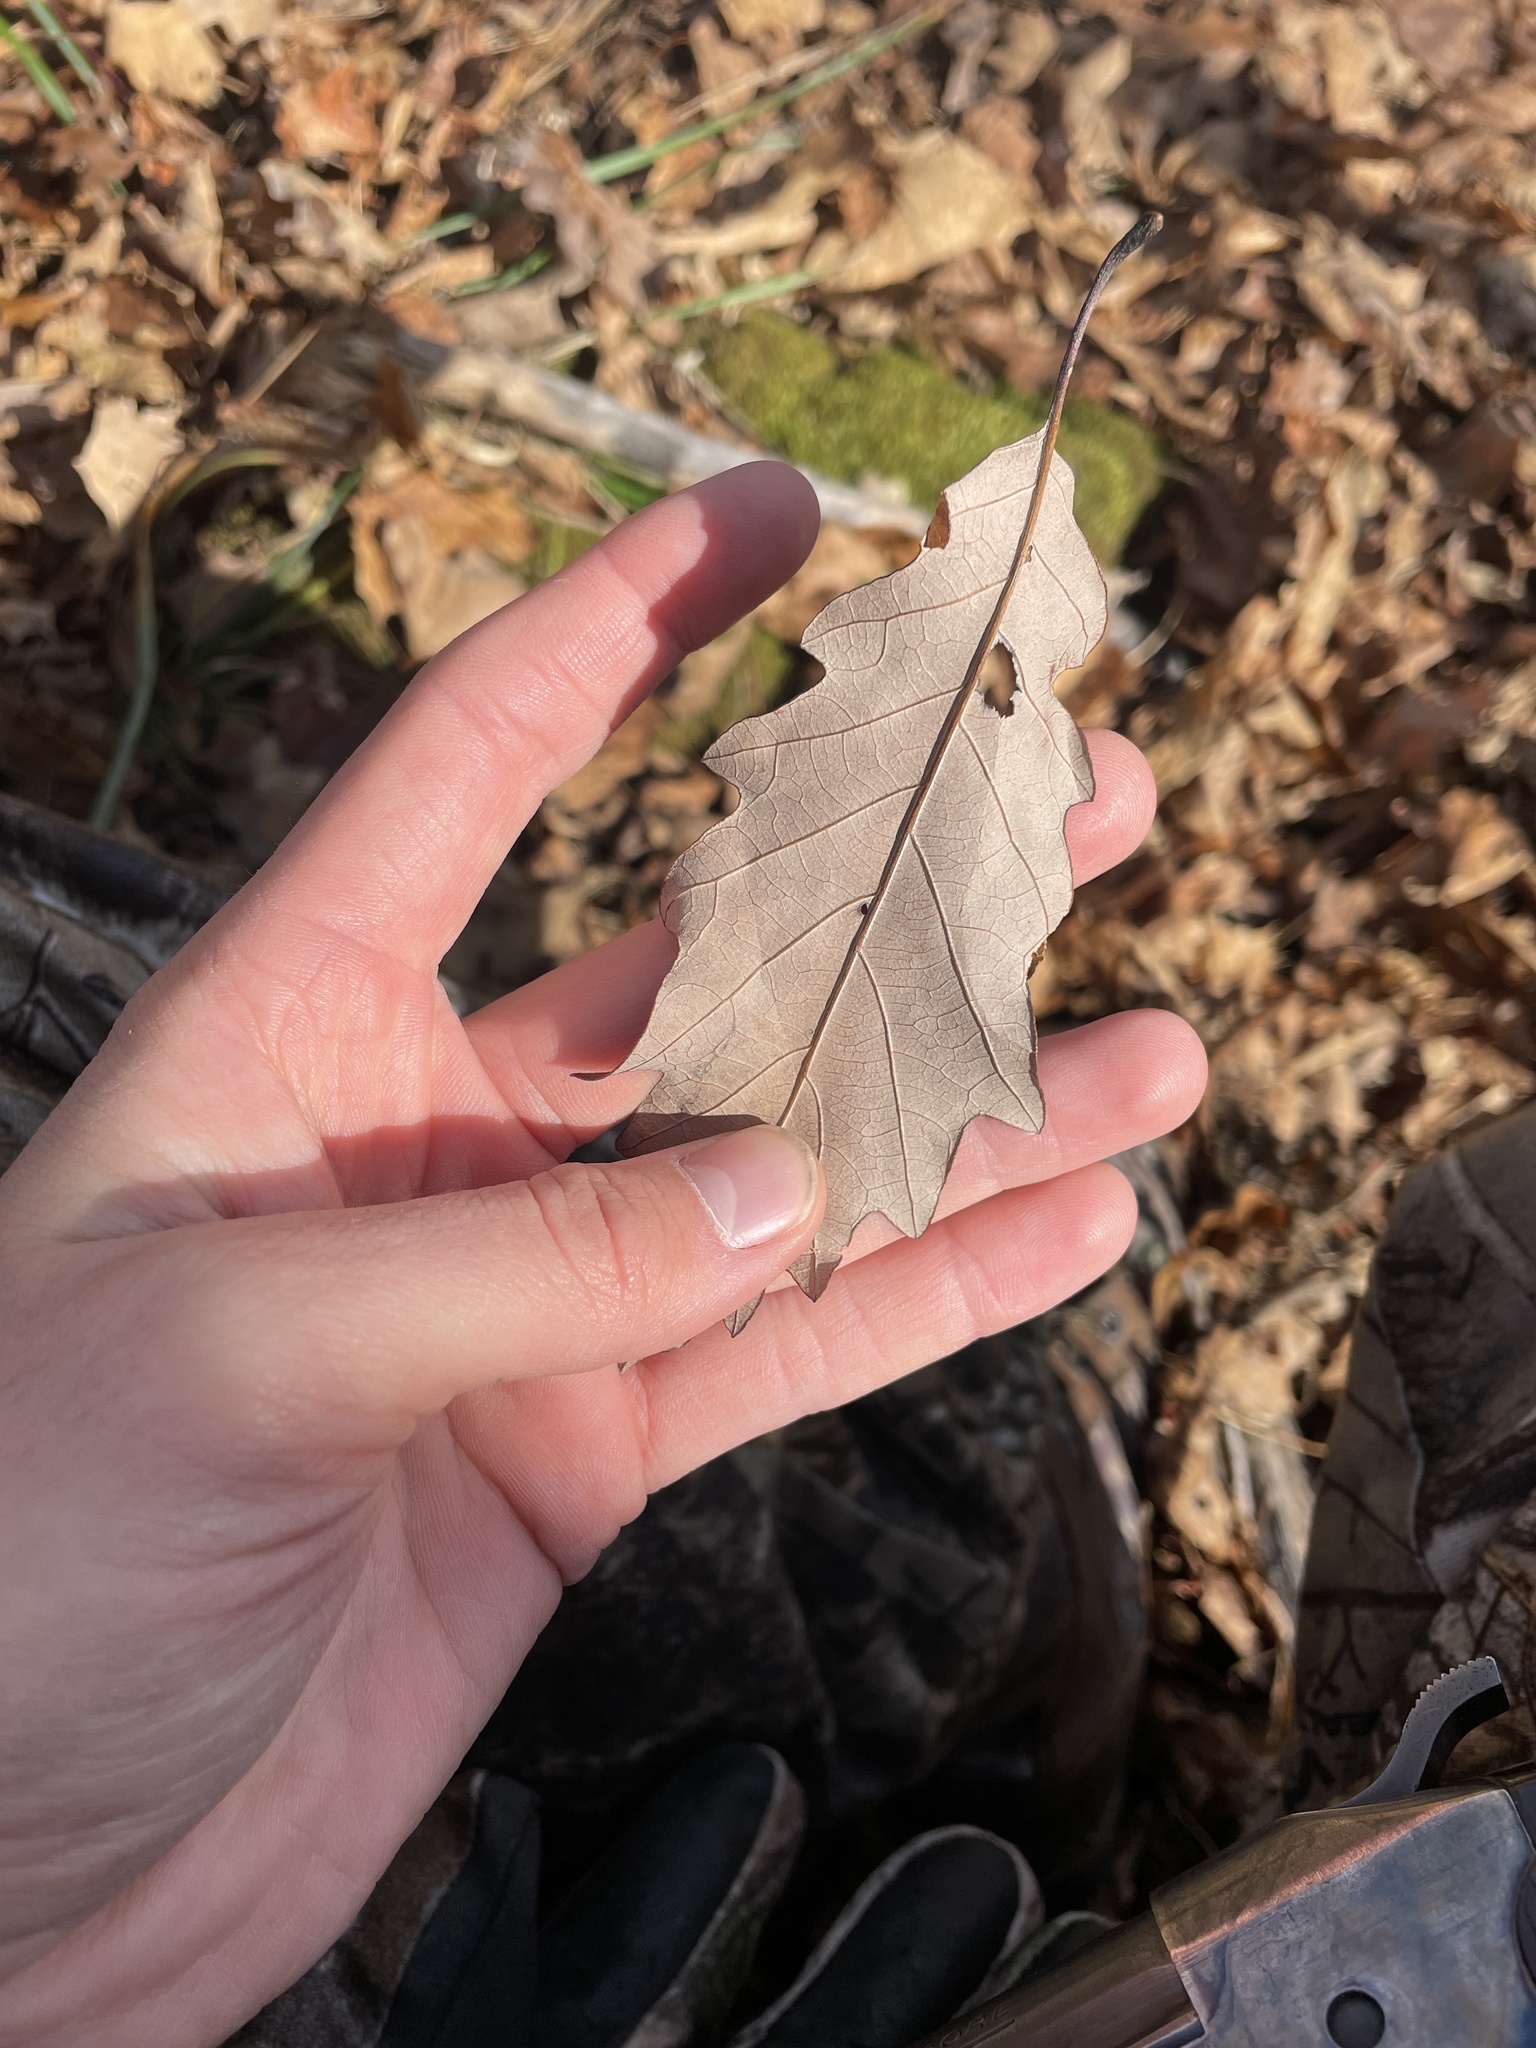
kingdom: Plantae
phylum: Tracheophyta
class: Magnoliopsida
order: Fagales
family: Fagaceae
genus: Quercus
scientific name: Quercus montana
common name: Chestnut oak
